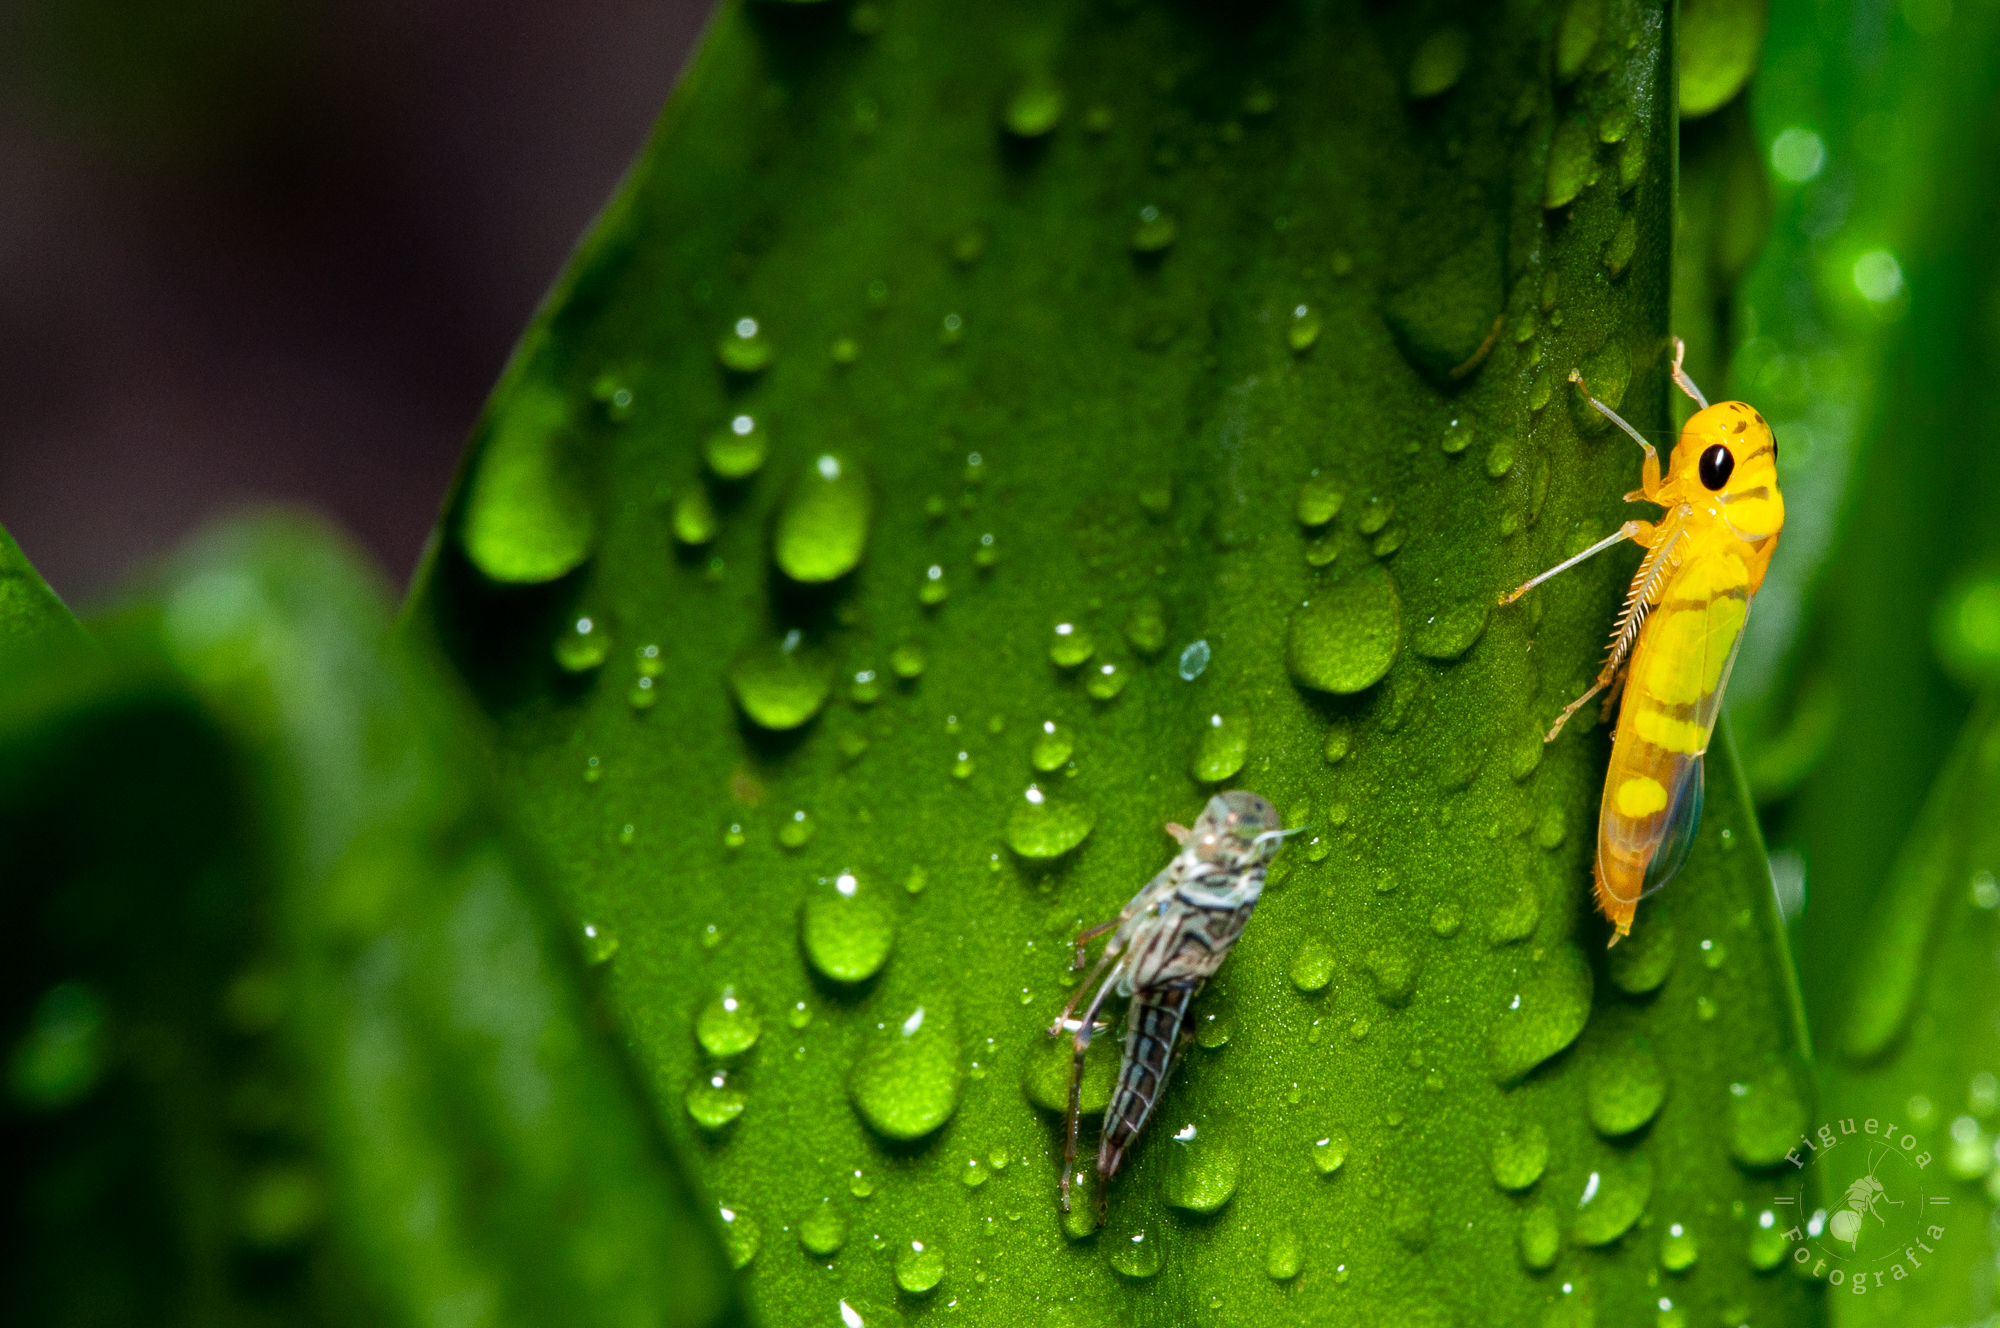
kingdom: Animalia
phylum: Arthropoda
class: Insecta
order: Hemiptera
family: Cicadellidae
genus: Dilobopterus
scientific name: Dilobopterus instratus
